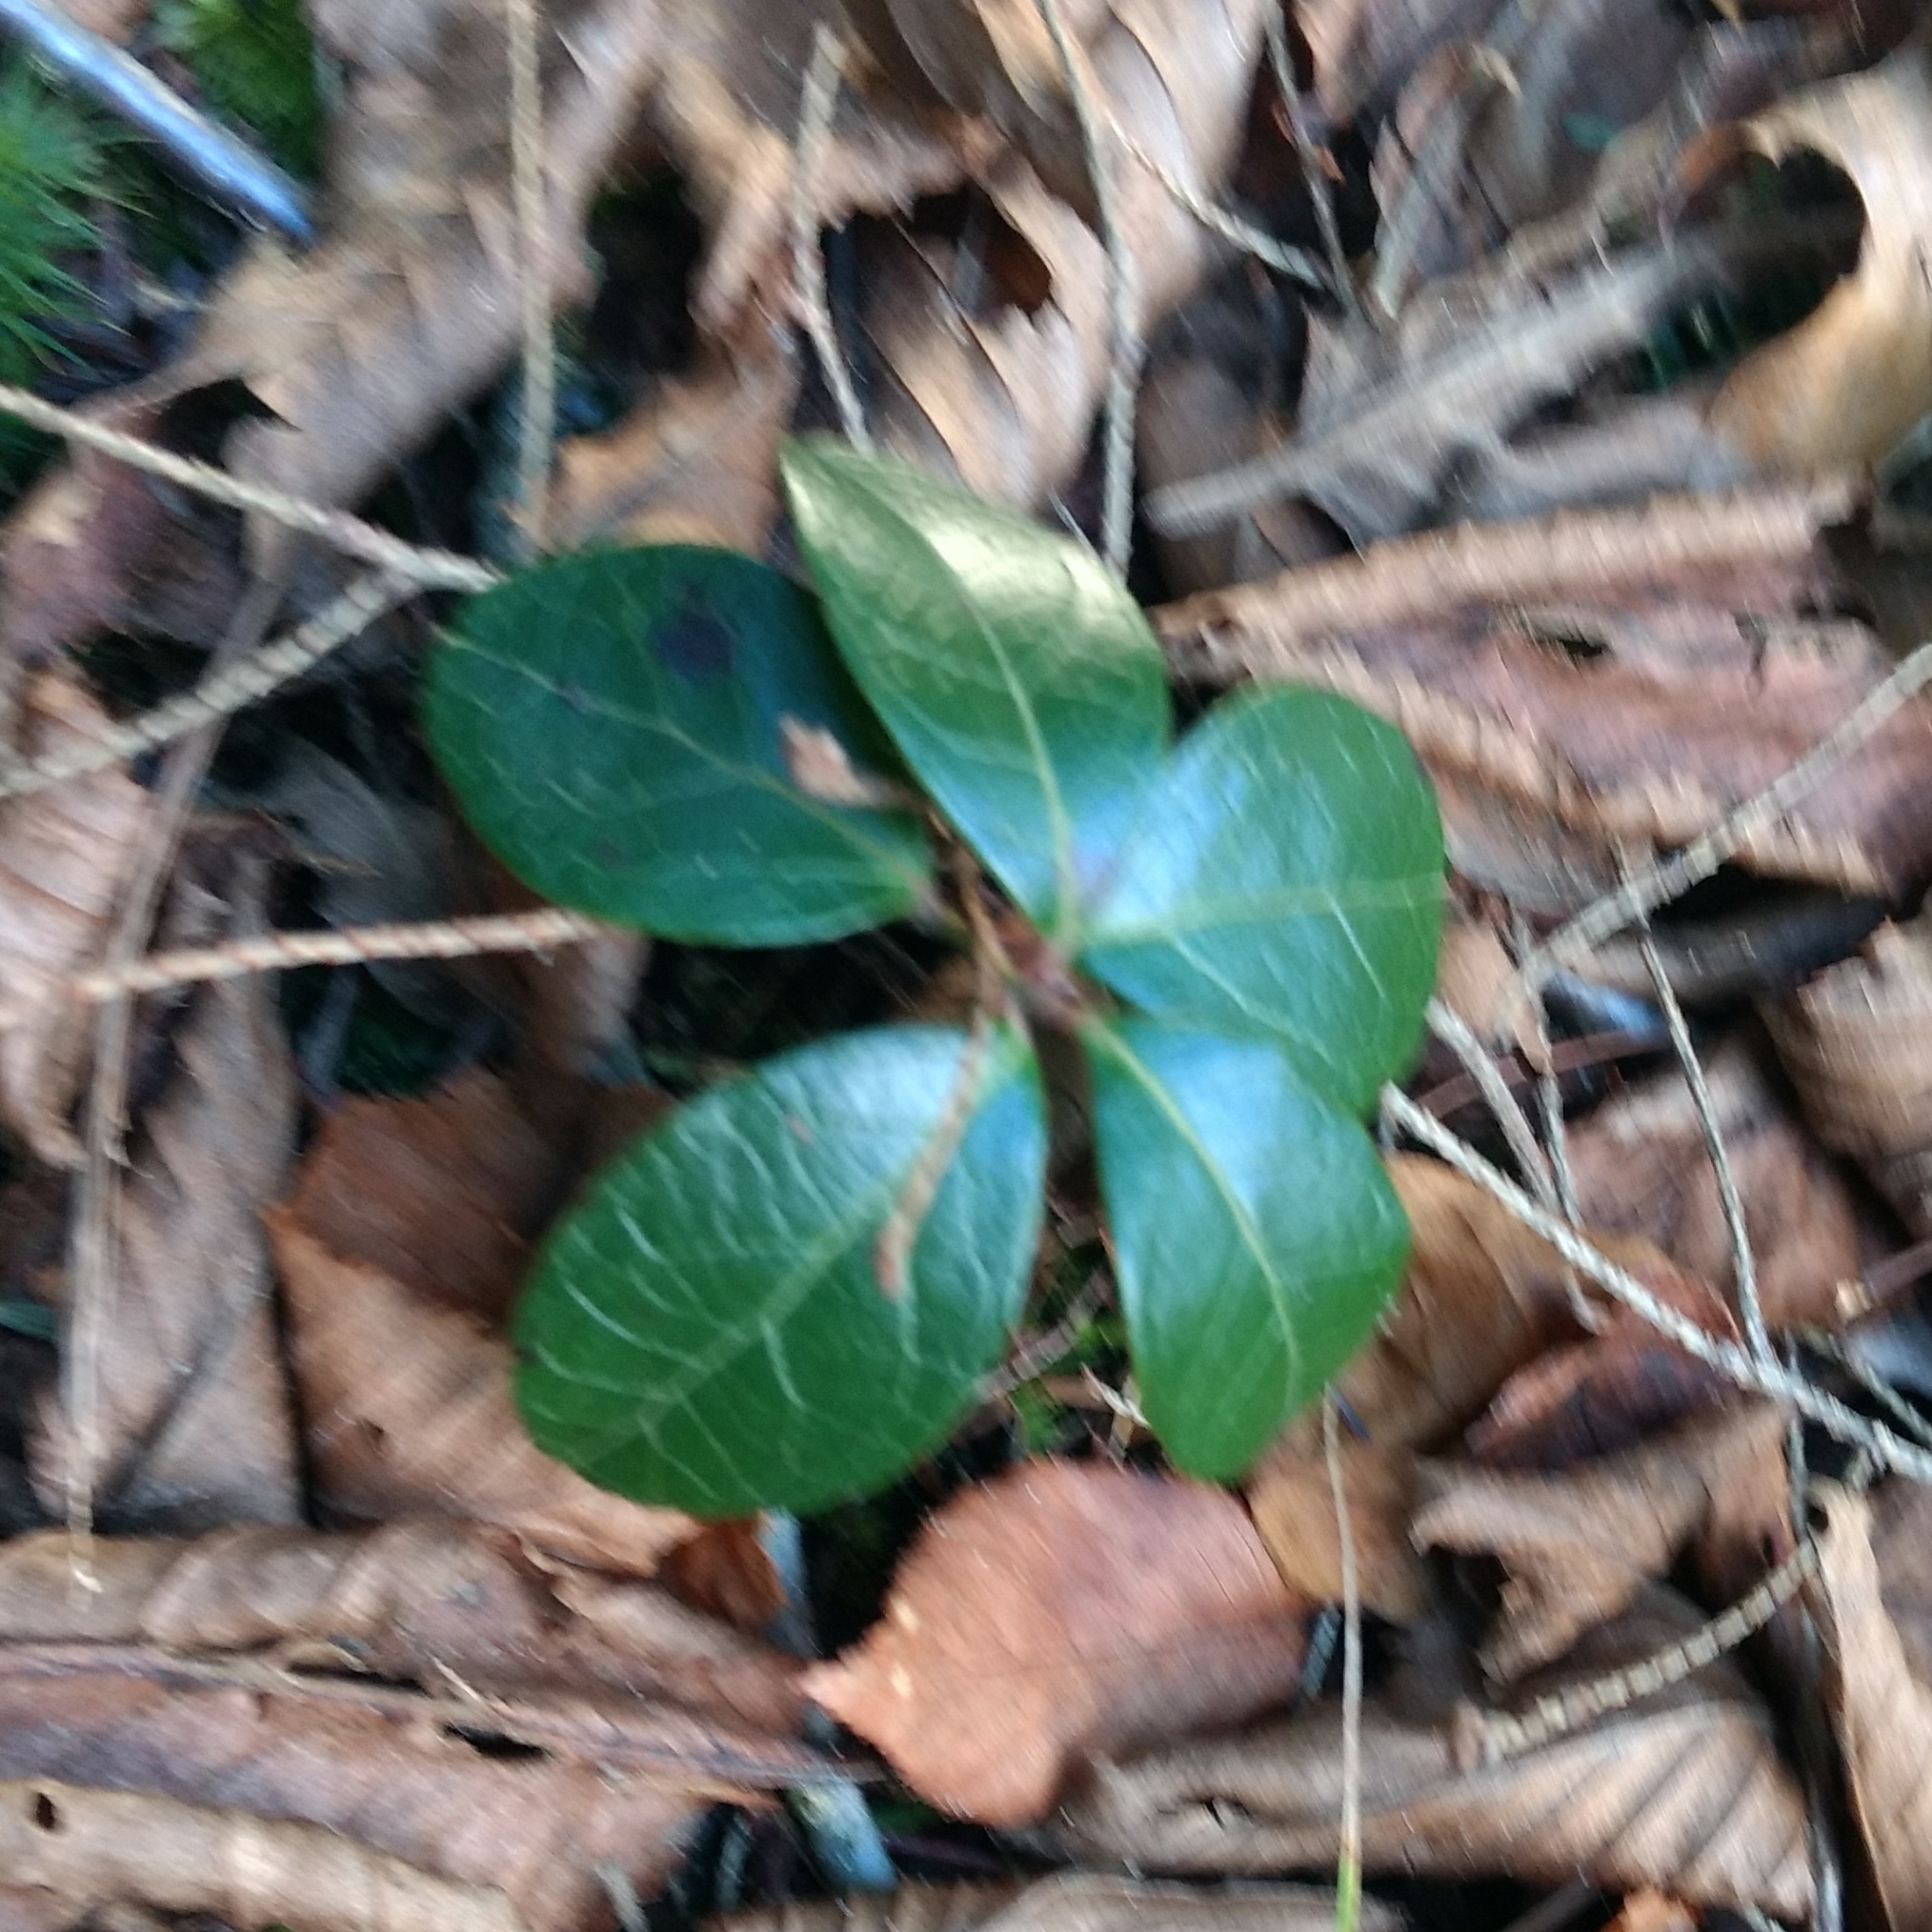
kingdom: Plantae
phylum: Tracheophyta
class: Magnoliopsida
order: Ericales
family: Ericaceae
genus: Gaultheria
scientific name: Gaultheria procumbens
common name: Checkerberry
